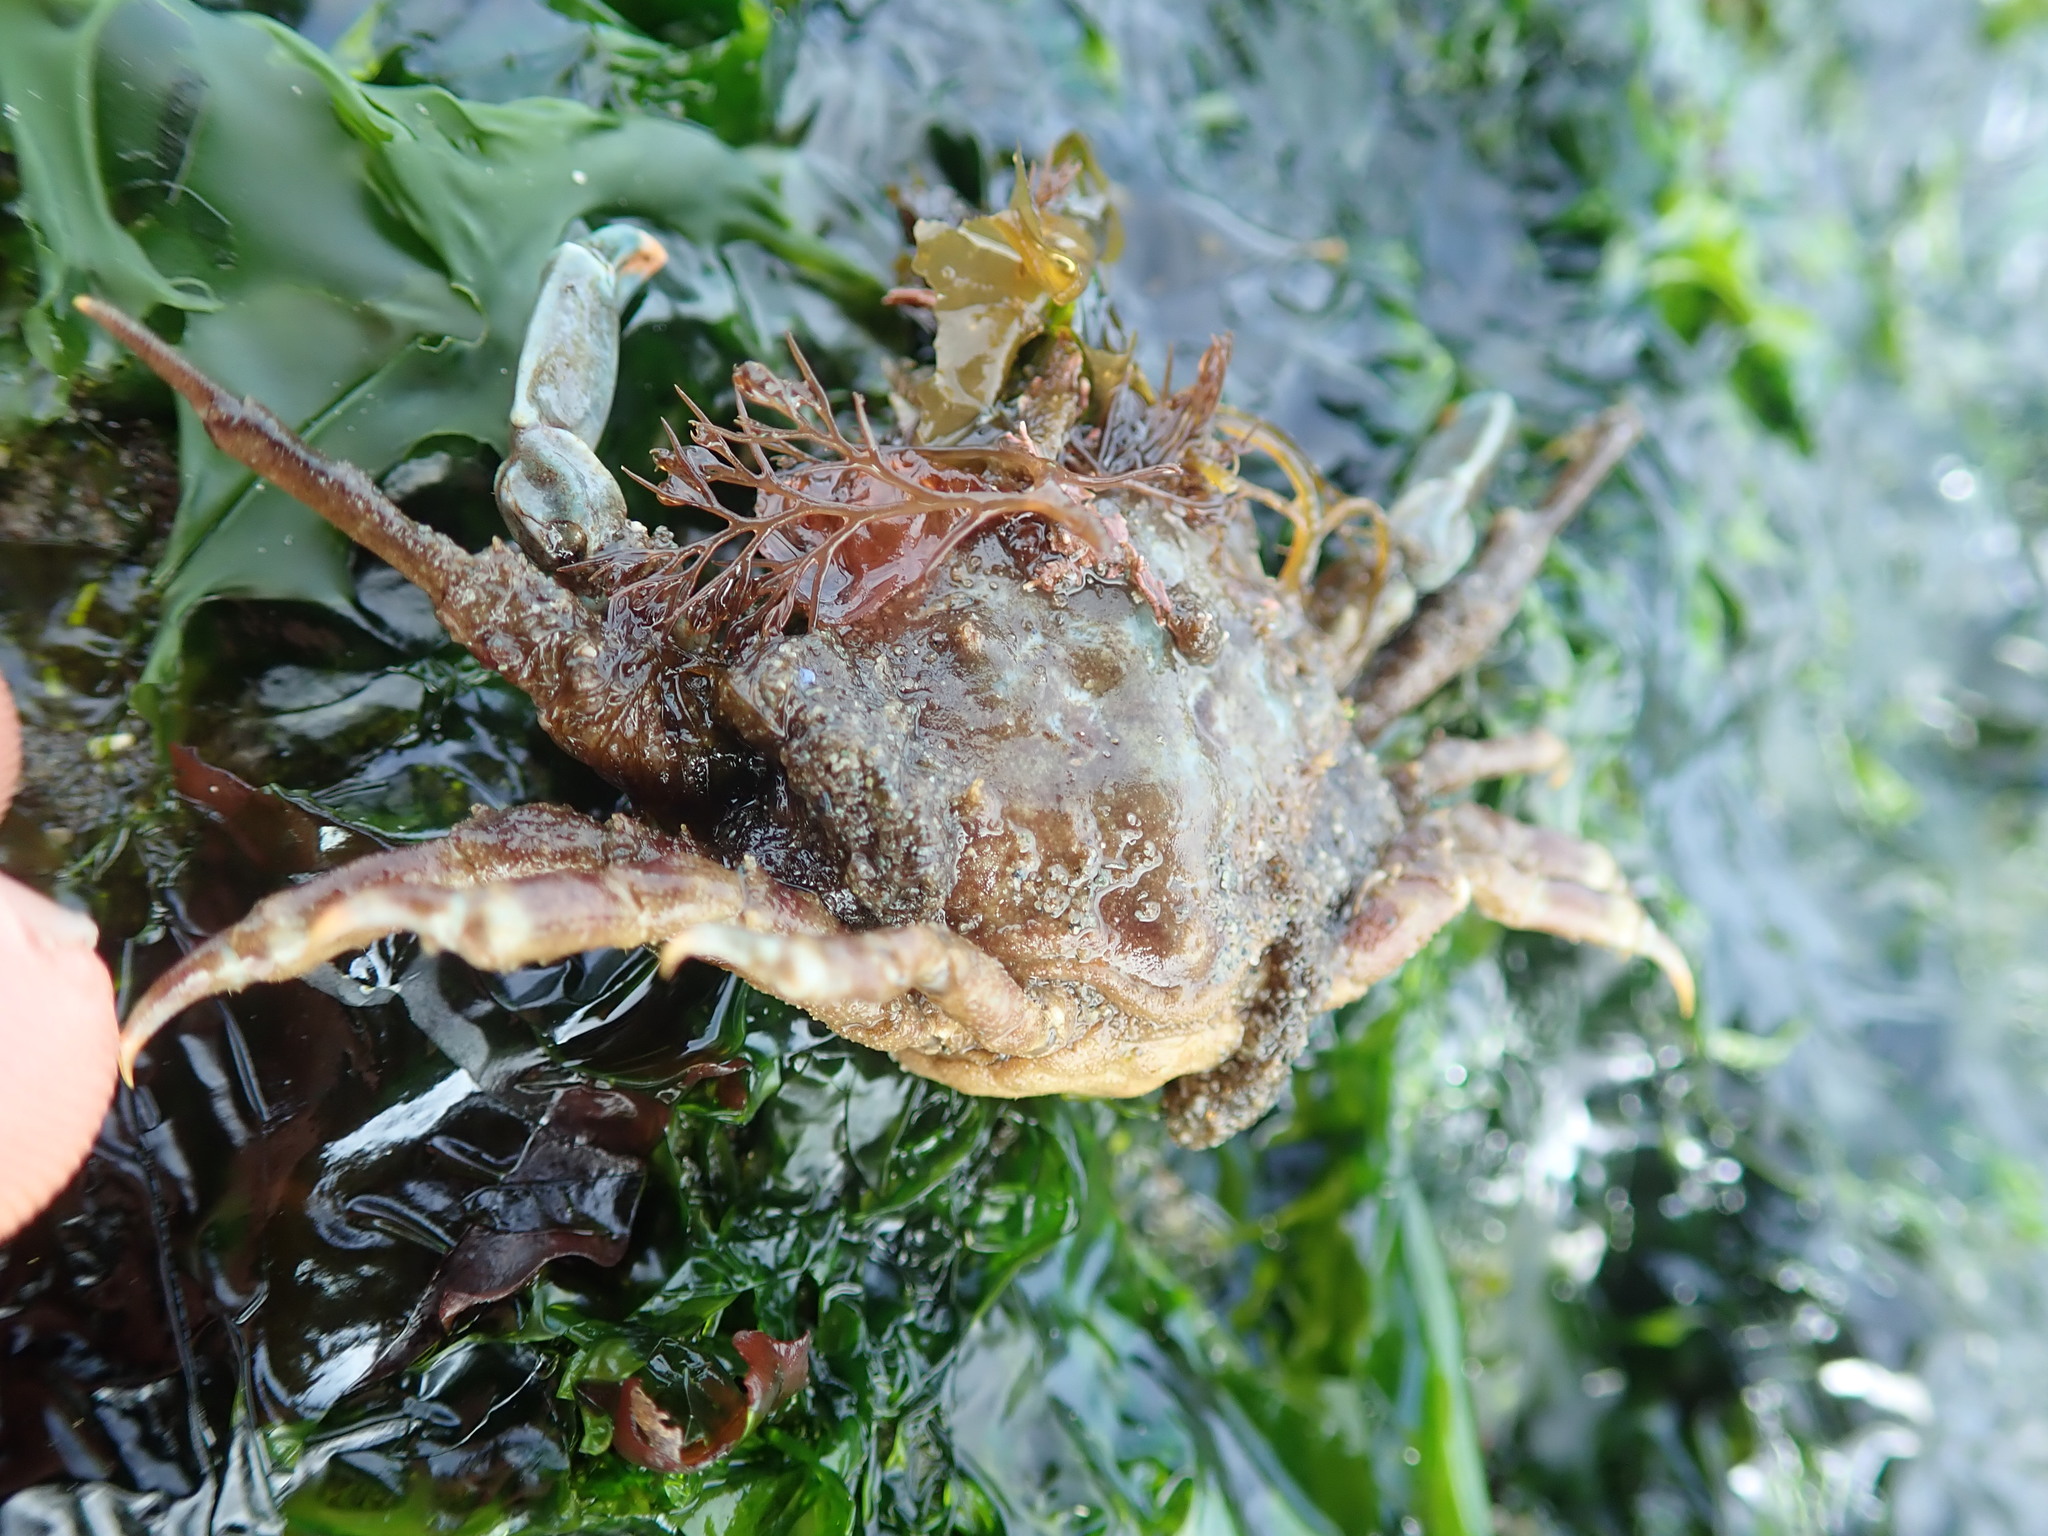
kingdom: Animalia
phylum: Arthropoda
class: Malacostraca
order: Decapoda
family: Epialtidae
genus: Pugettia
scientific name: Pugettia gracilis
